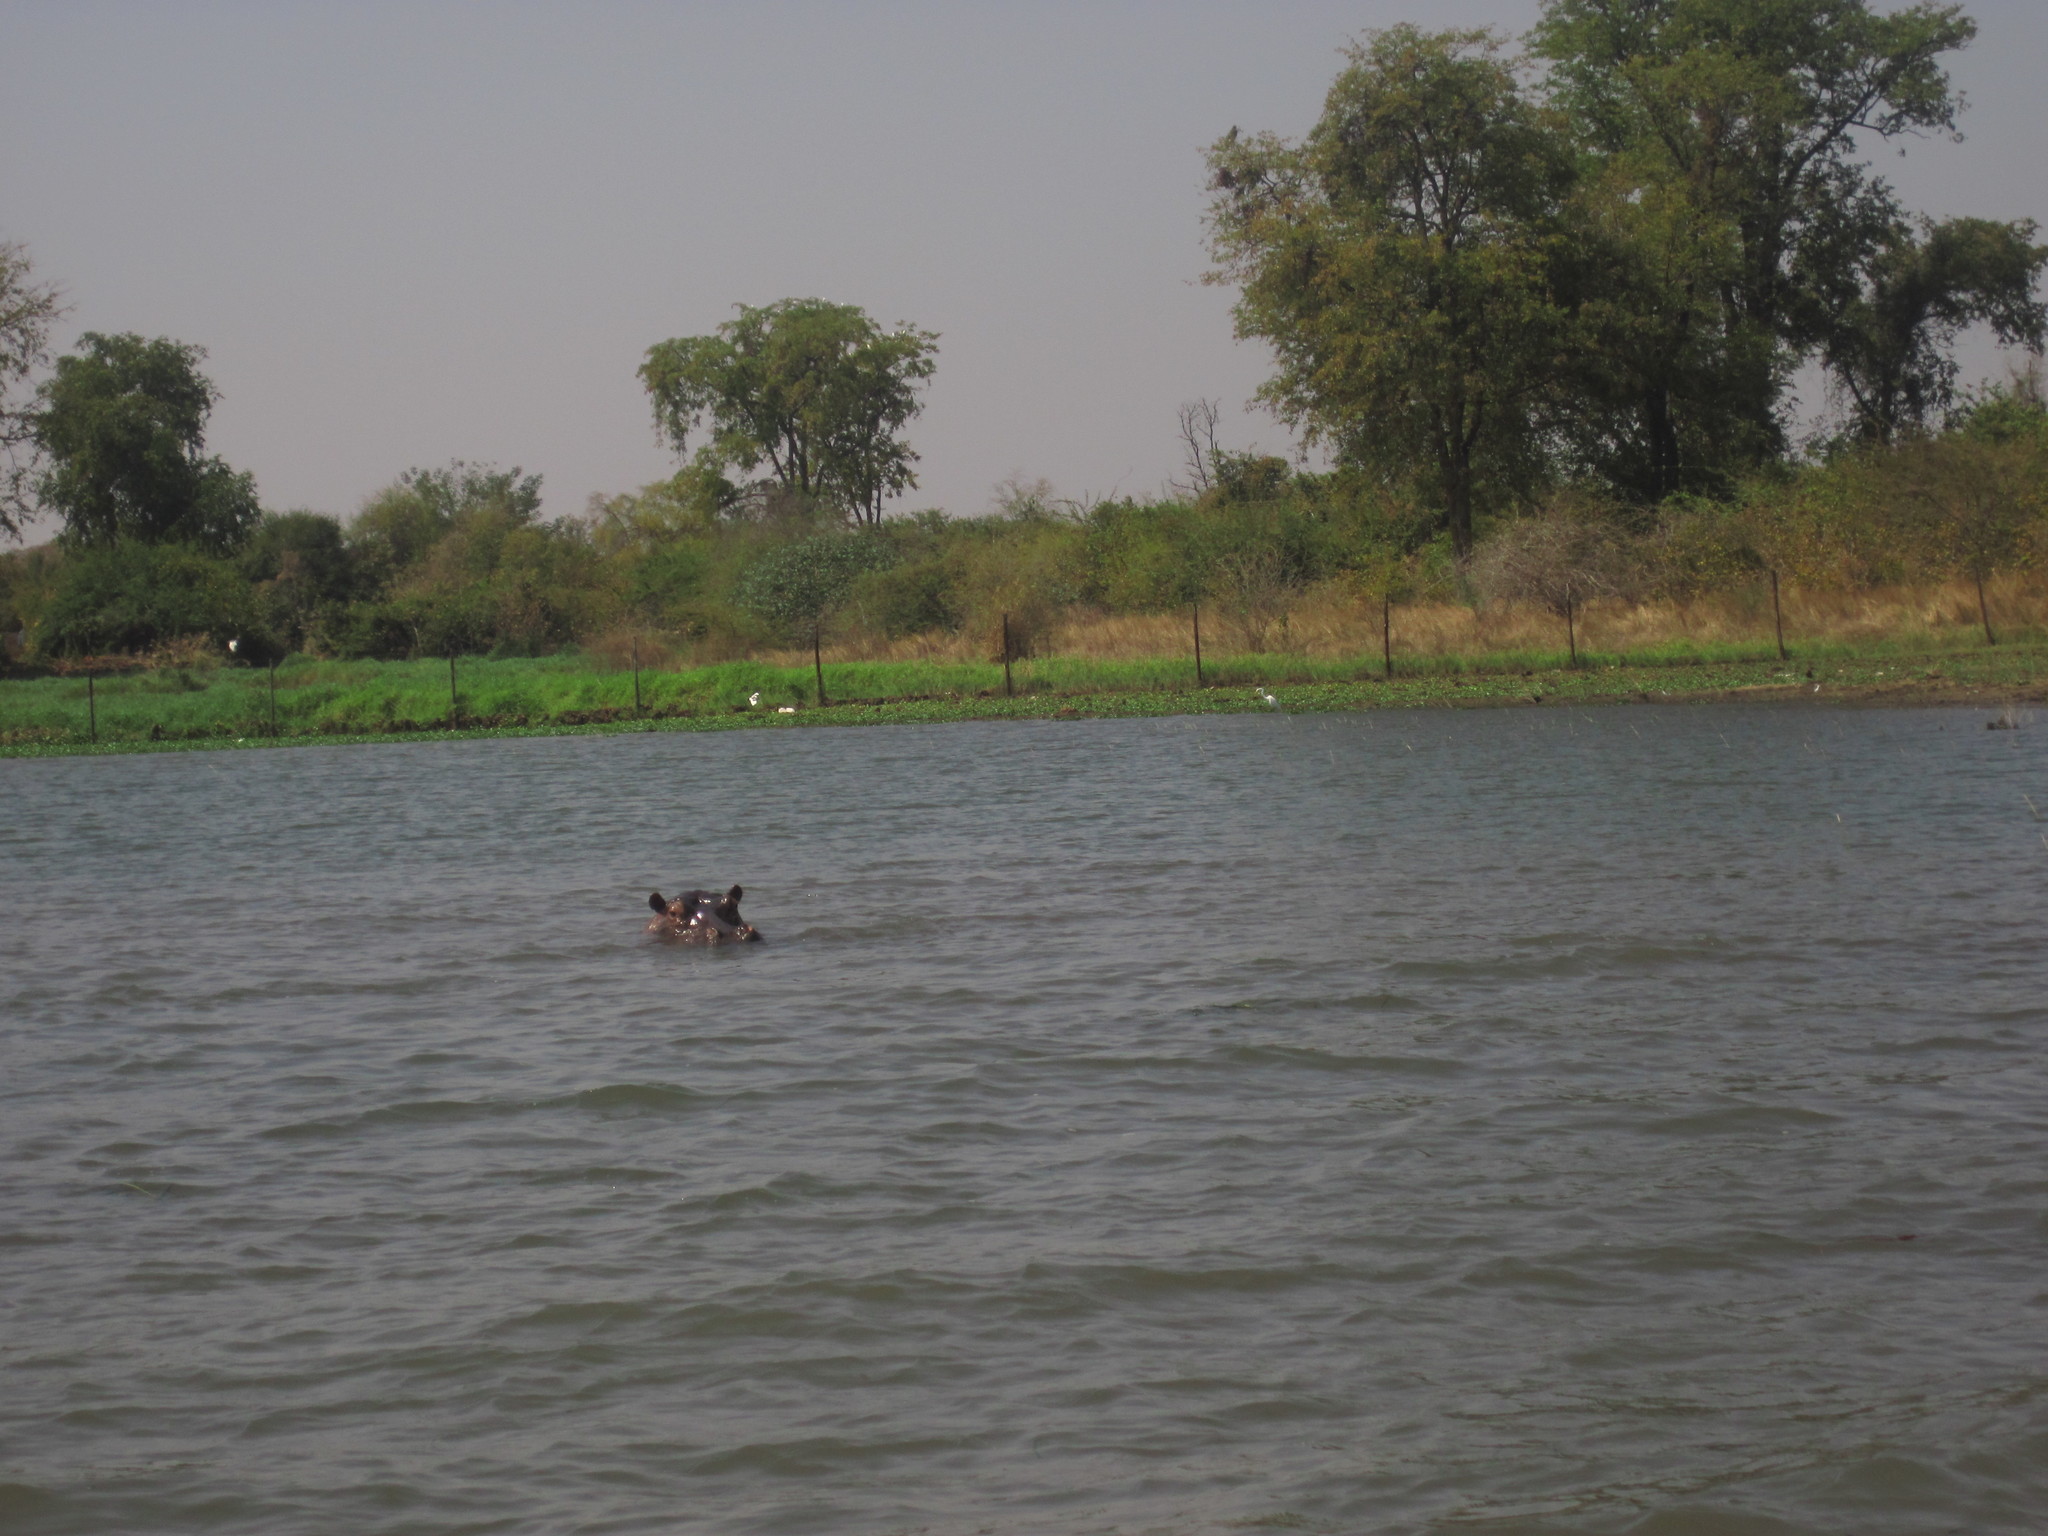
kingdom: Animalia
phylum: Chordata
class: Mammalia
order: Artiodactyla
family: Hippopotamidae
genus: Hippopotamus
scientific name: Hippopotamus amphibius
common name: Common hippopotamus
